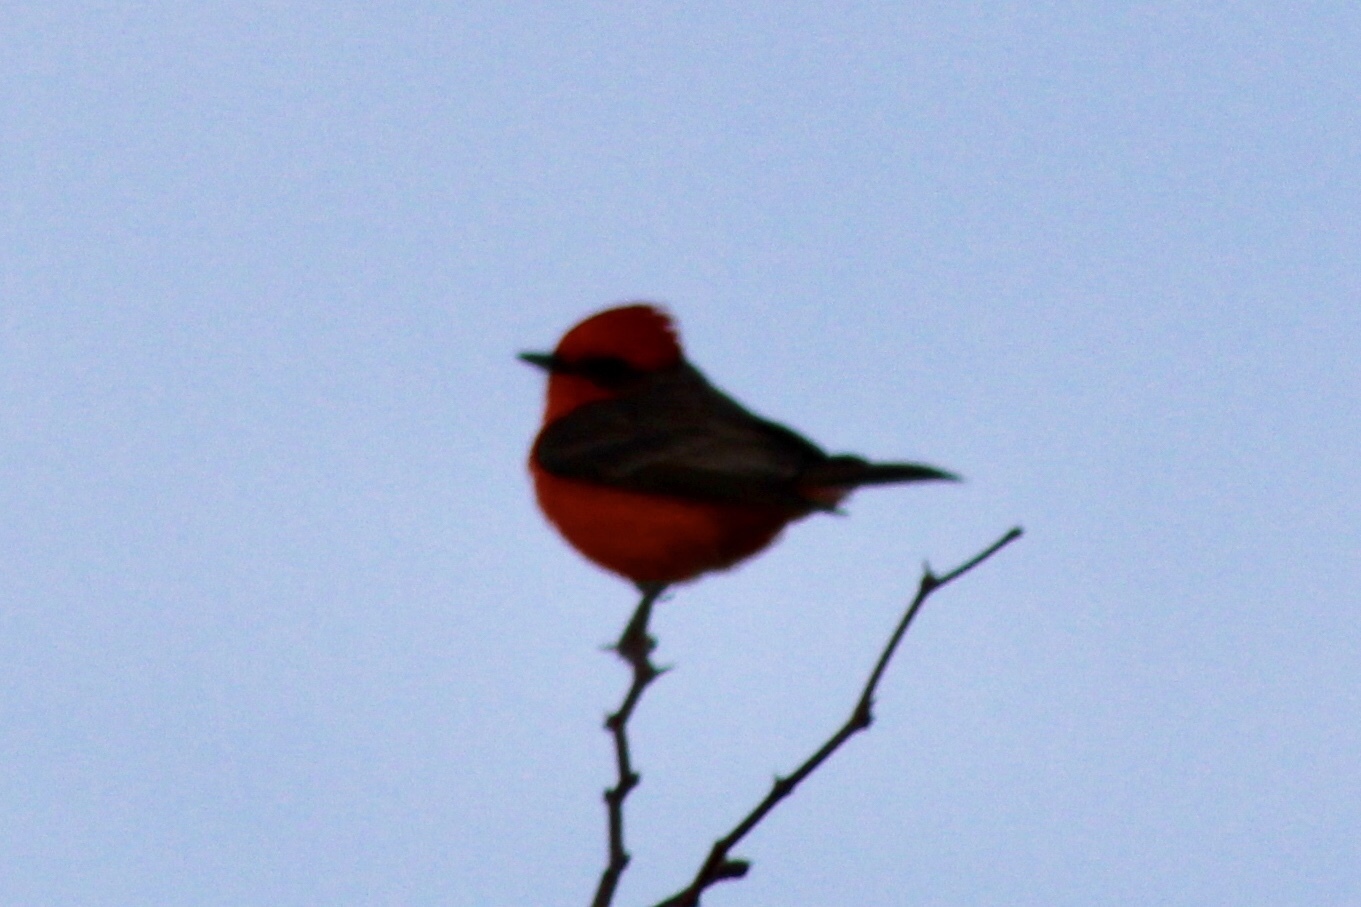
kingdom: Animalia
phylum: Chordata
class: Aves
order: Passeriformes
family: Tyrannidae
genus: Pyrocephalus
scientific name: Pyrocephalus rubinus
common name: Vermilion flycatcher
